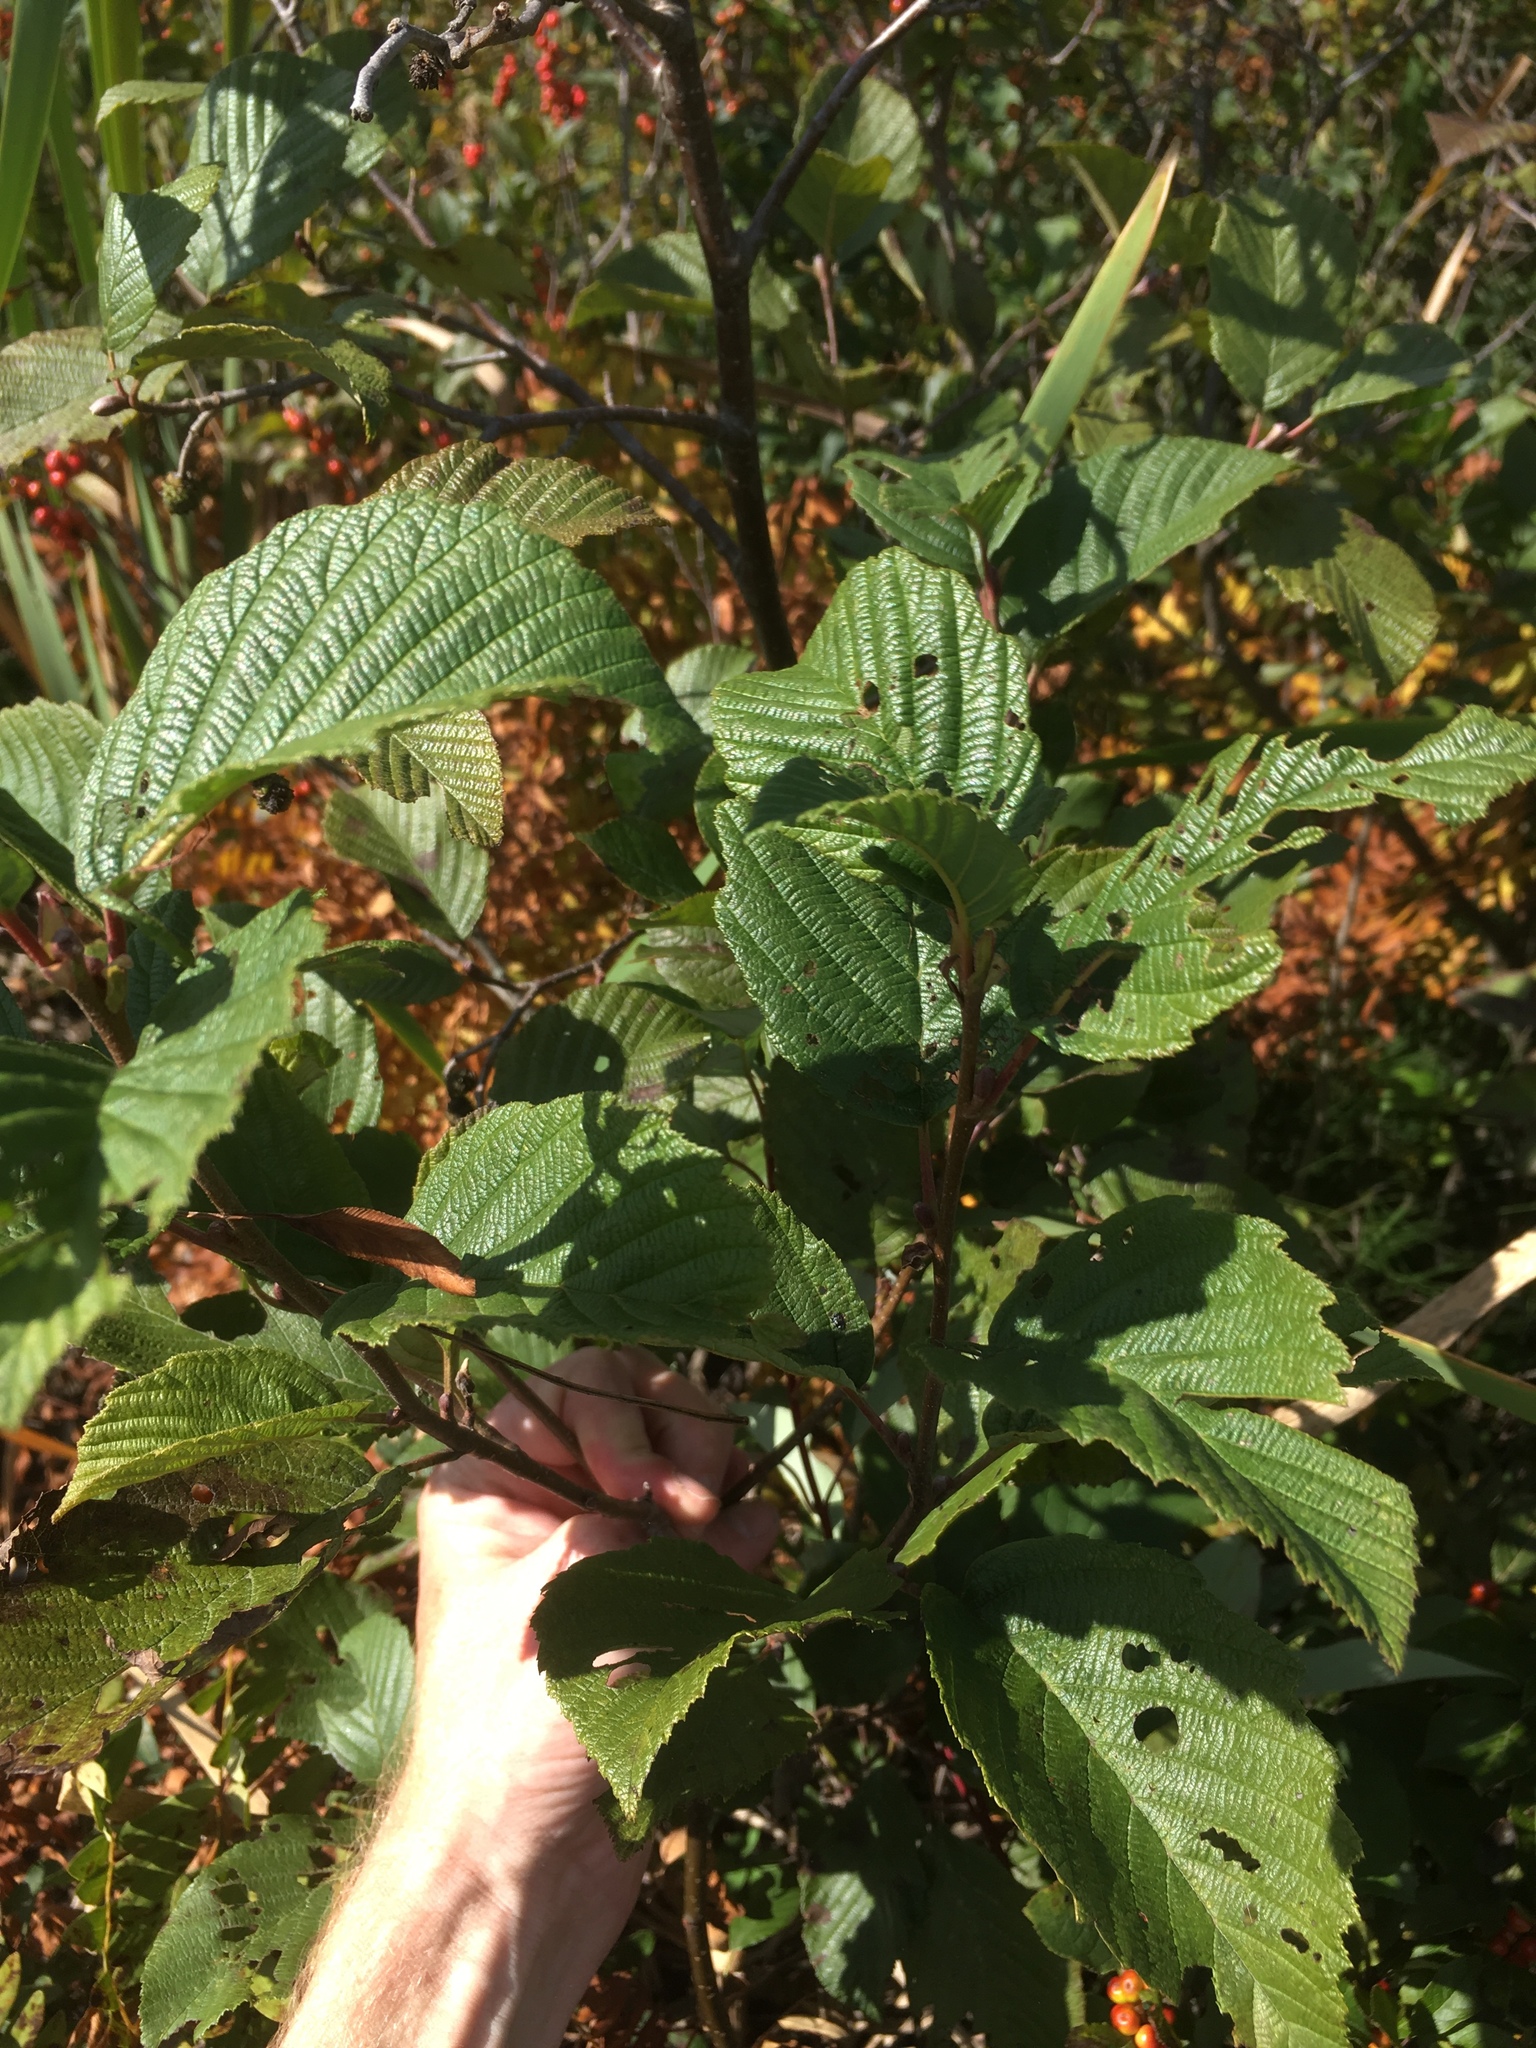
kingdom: Plantae
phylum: Tracheophyta
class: Magnoliopsida
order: Fagales
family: Betulaceae
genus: Alnus
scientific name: Alnus incana
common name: Grey alder
